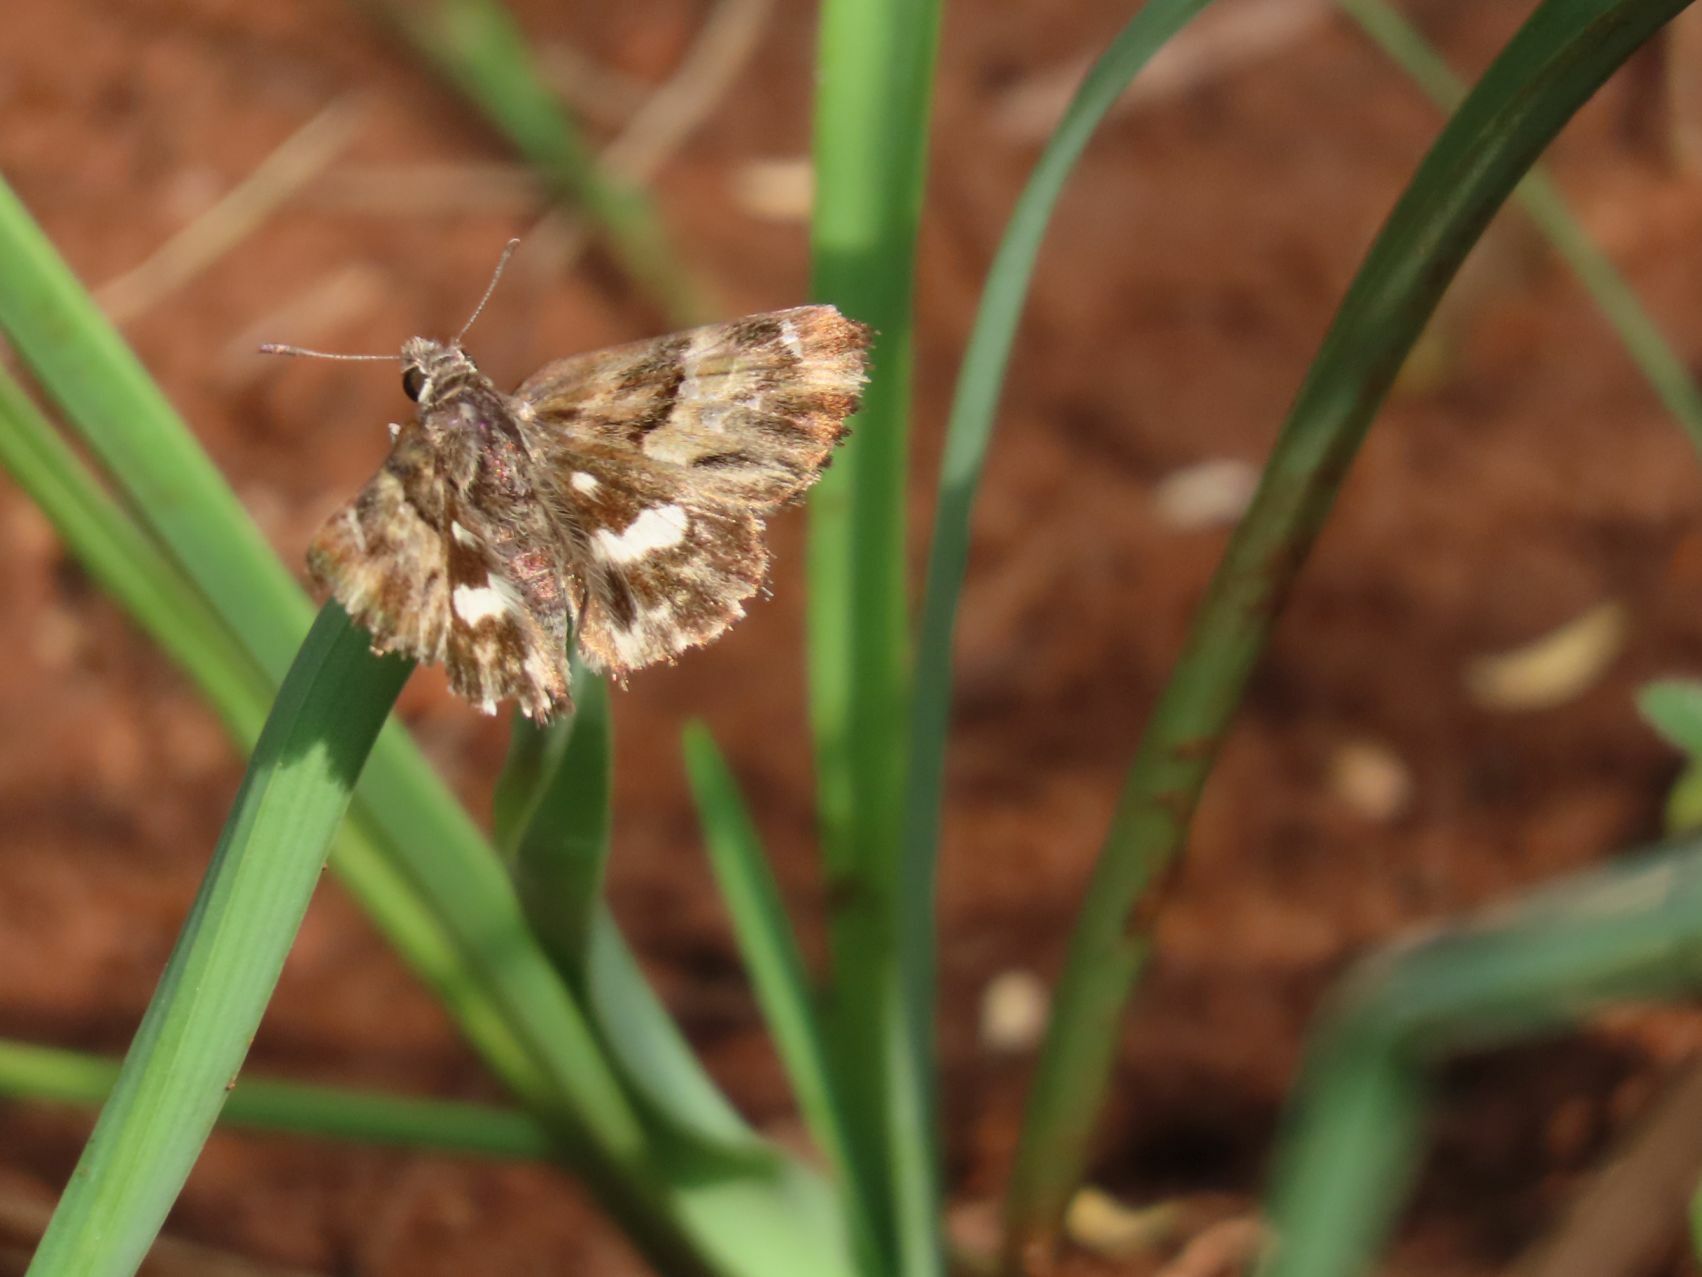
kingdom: Animalia
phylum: Arthropoda
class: Insecta
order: Lepidoptera
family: Hesperiidae
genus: Gomalia
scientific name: Gomalia elma
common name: Green-marbled skipper
